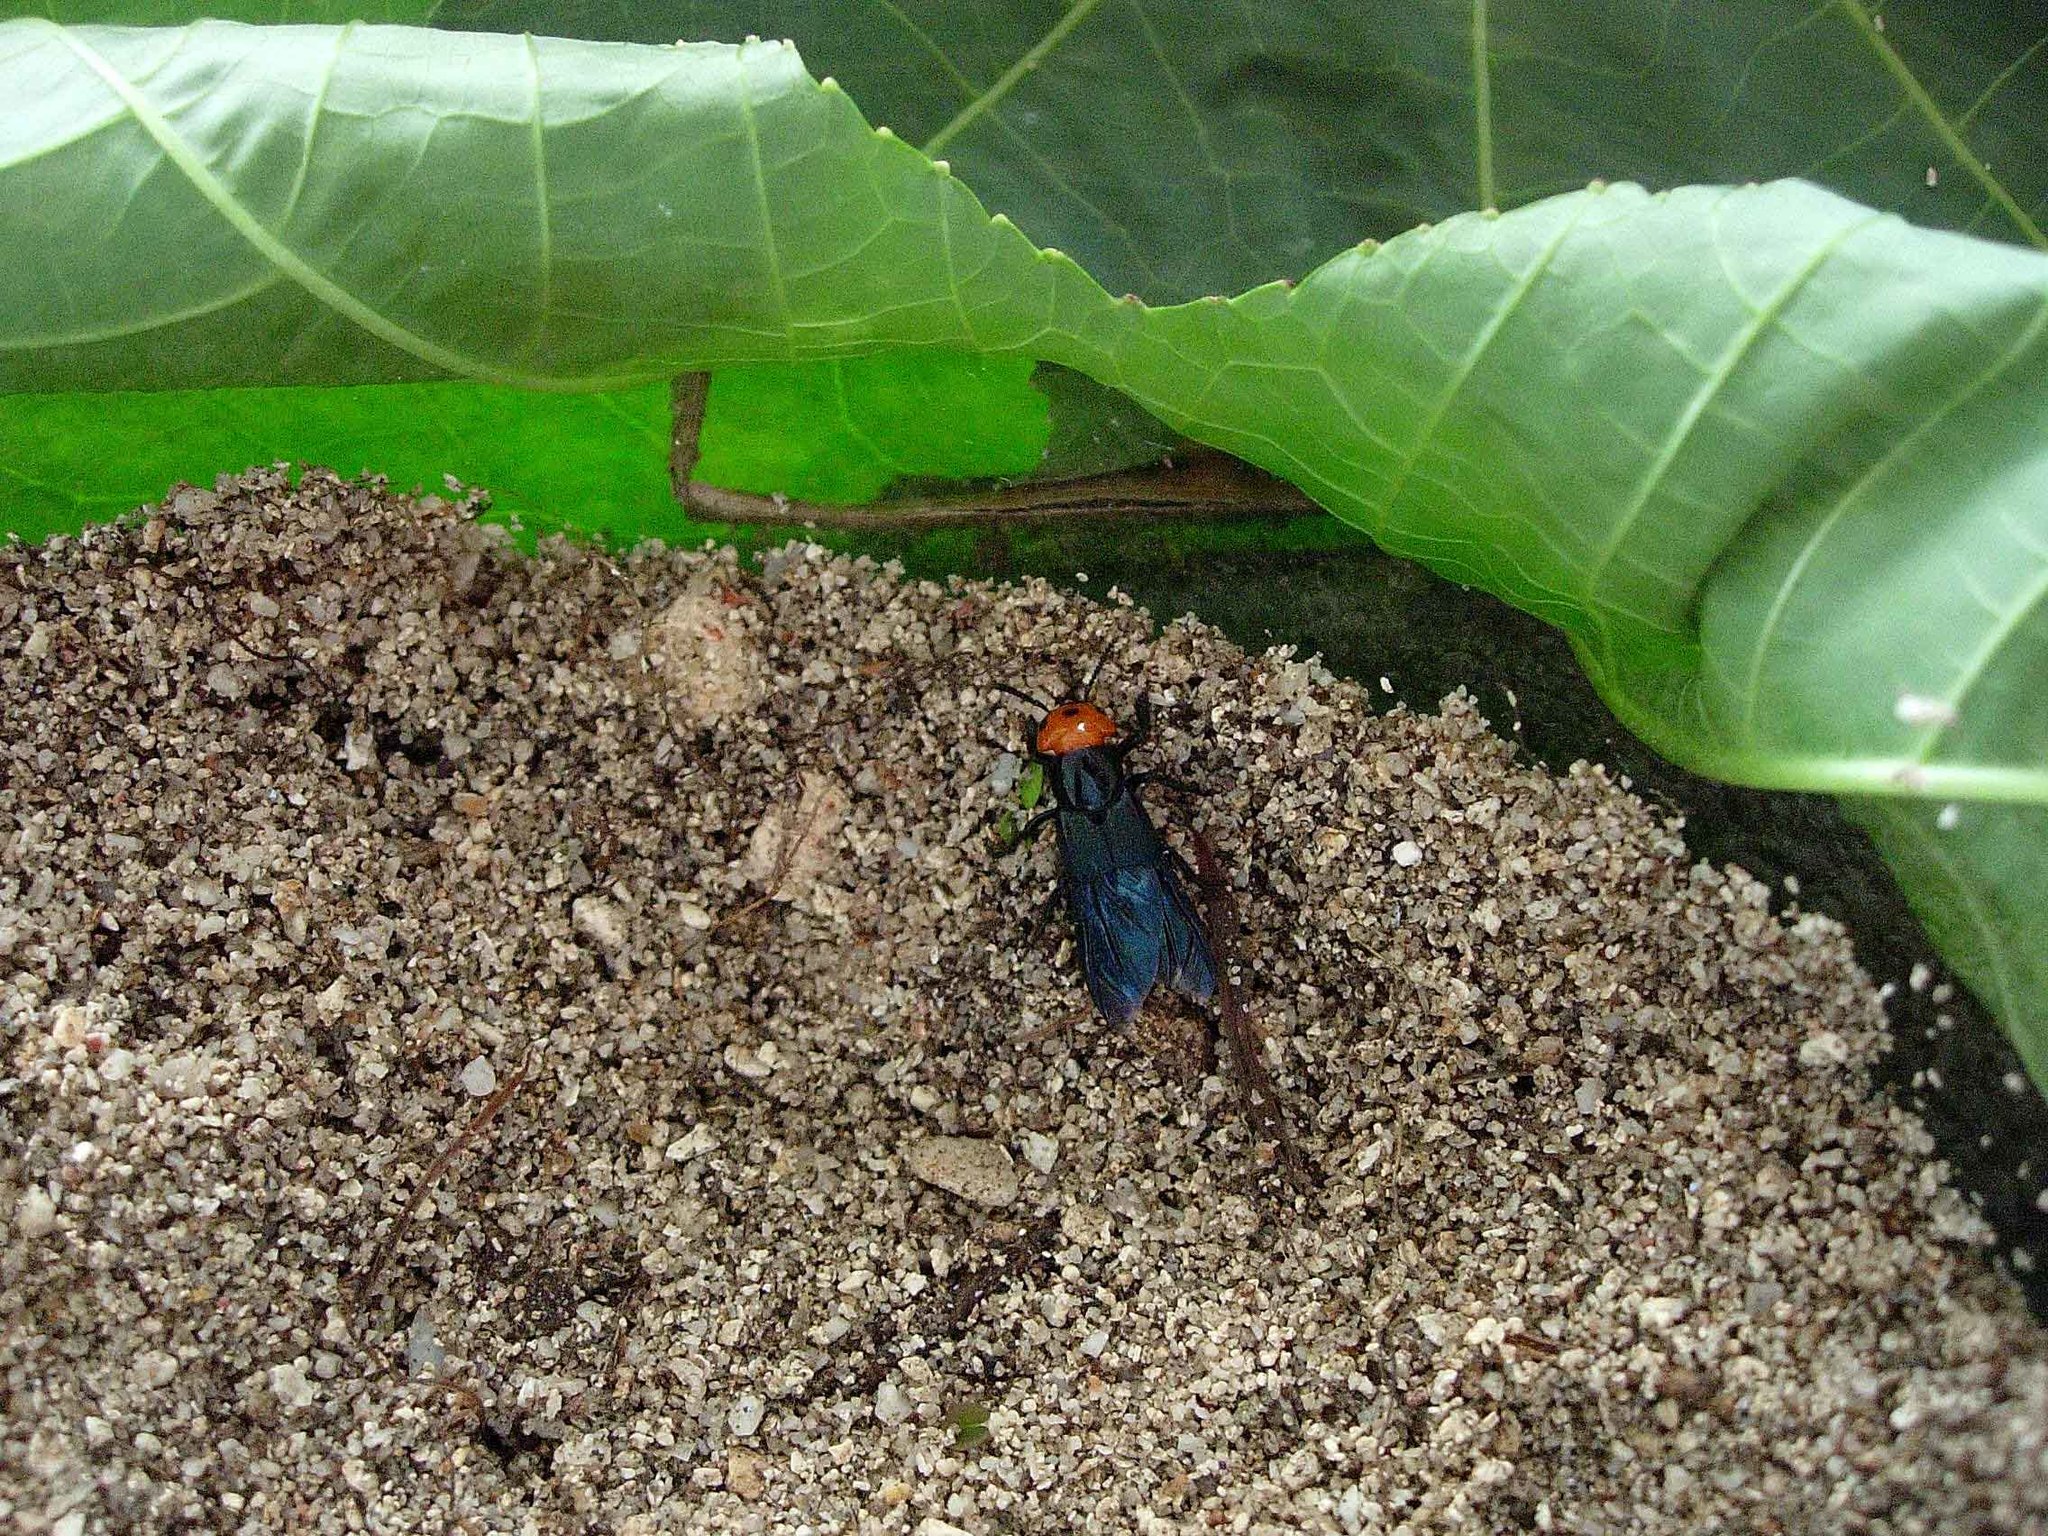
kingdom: Animalia
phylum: Arthropoda
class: Insecta
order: Coleoptera
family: Staphylinidae
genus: Creophilus
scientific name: Creophilus erythrocephalus
